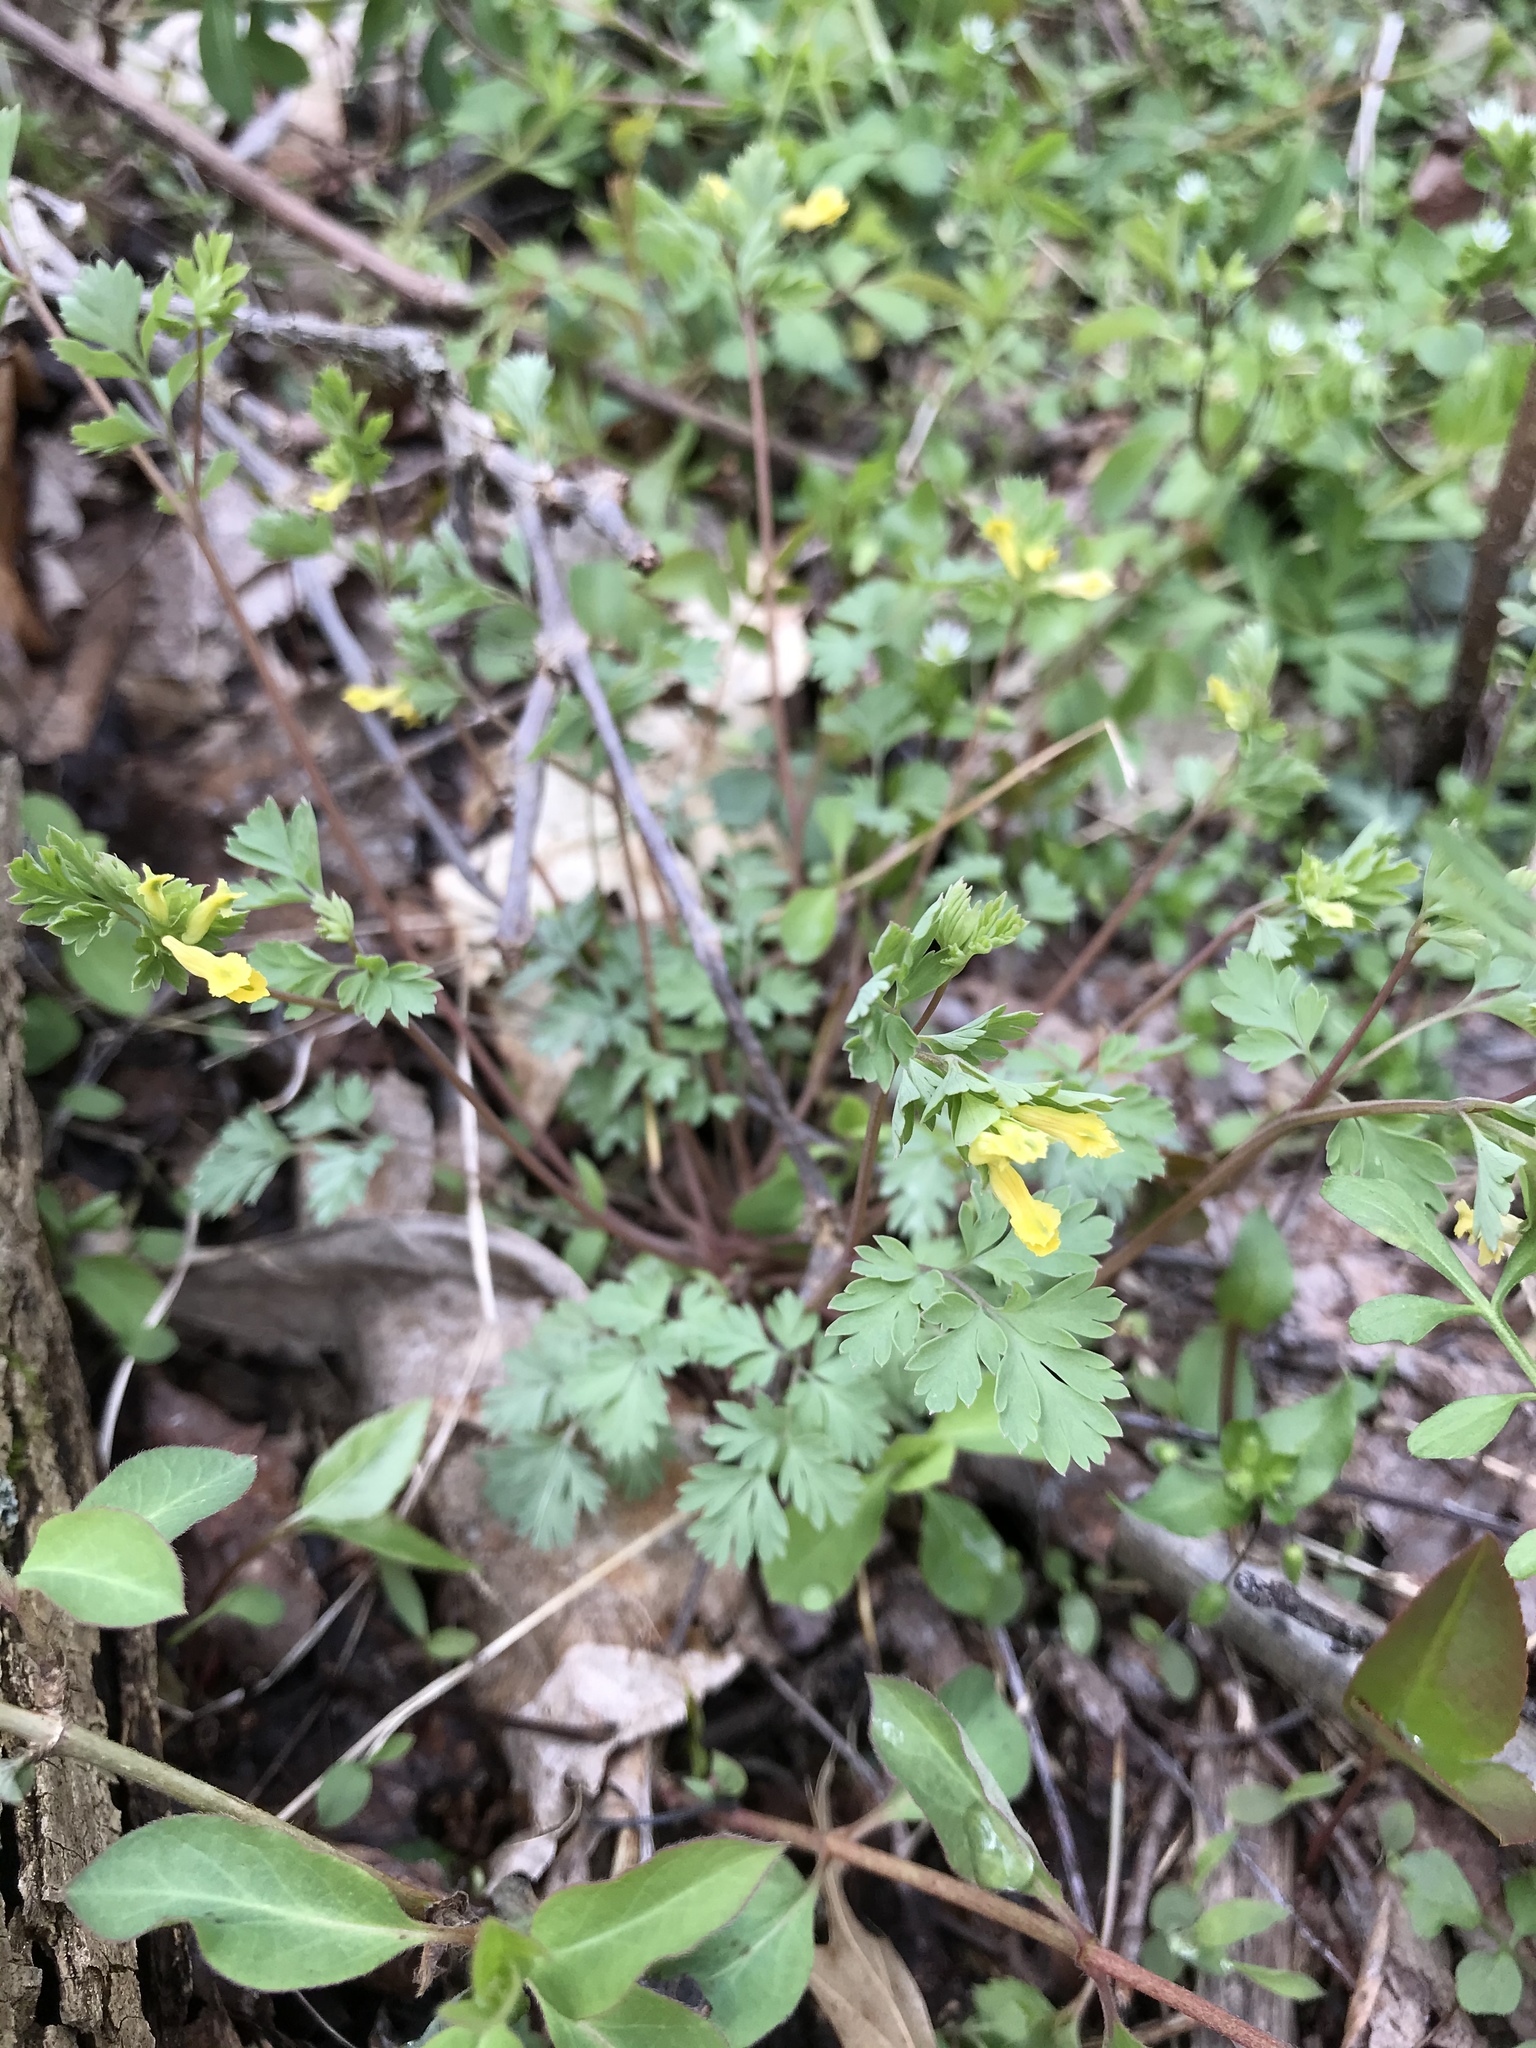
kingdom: Plantae
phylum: Tracheophyta
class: Magnoliopsida
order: Ranunculales
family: Papaveraceae
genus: Corydalis
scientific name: Corydalis flavula
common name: Yellow corydalis
